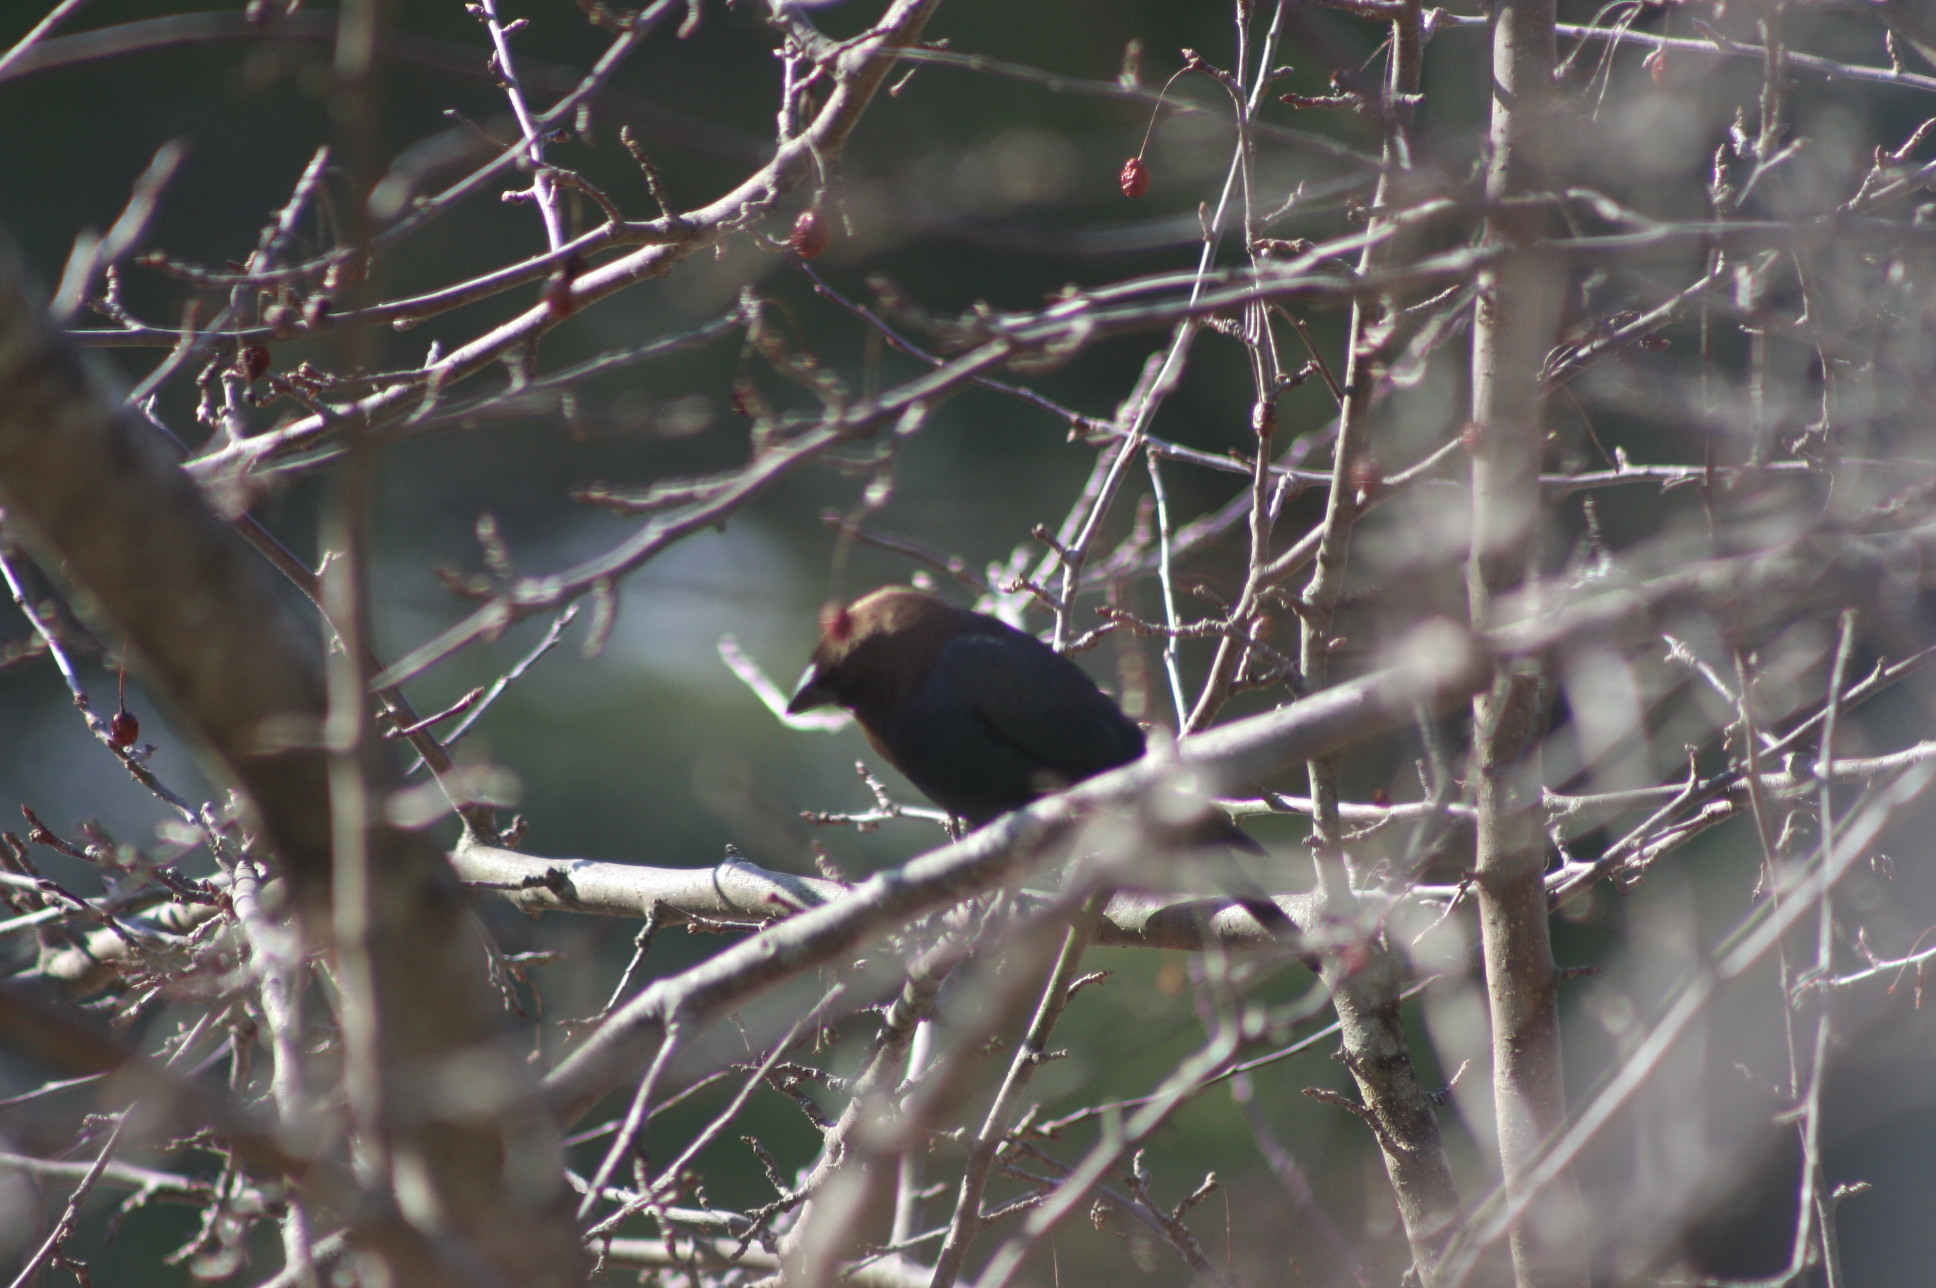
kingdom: Animalia
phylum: Chordata
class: Aves
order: Passeriformes
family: Icteridae
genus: Molothrus
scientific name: Molothrus ater
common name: Brown-headed cowbird
